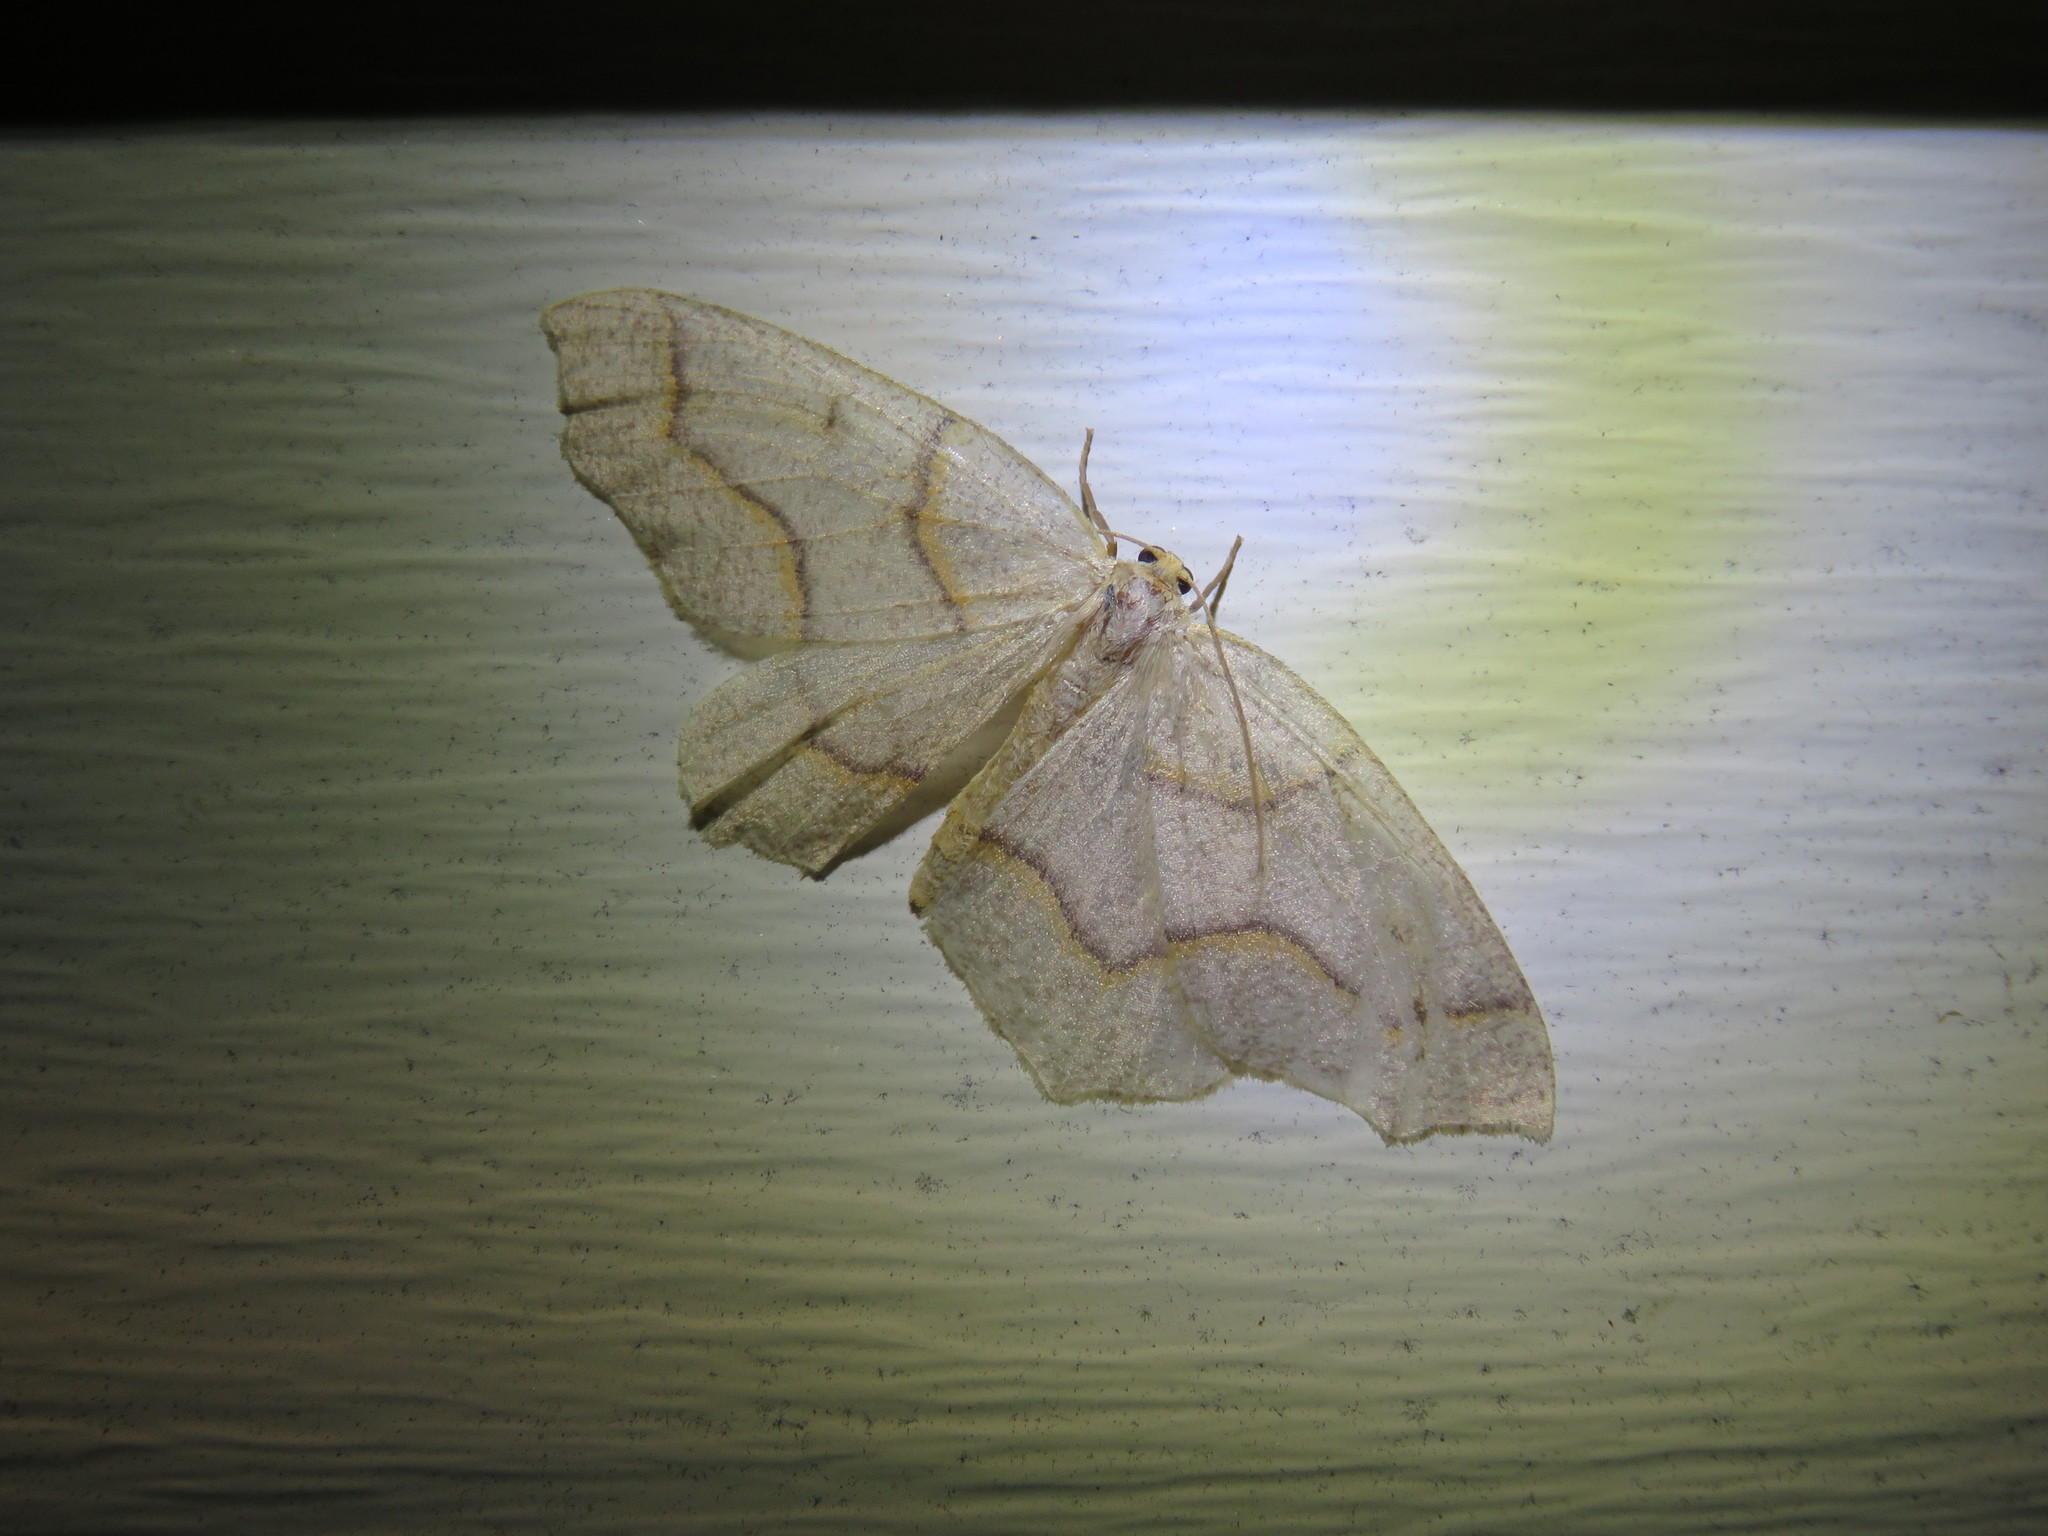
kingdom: Animalia
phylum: Arthropoda
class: Insecta
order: Lepidoptera
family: Geometridae
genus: Lambdina
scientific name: Lambdina fiscellaria
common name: Hemlock looper
